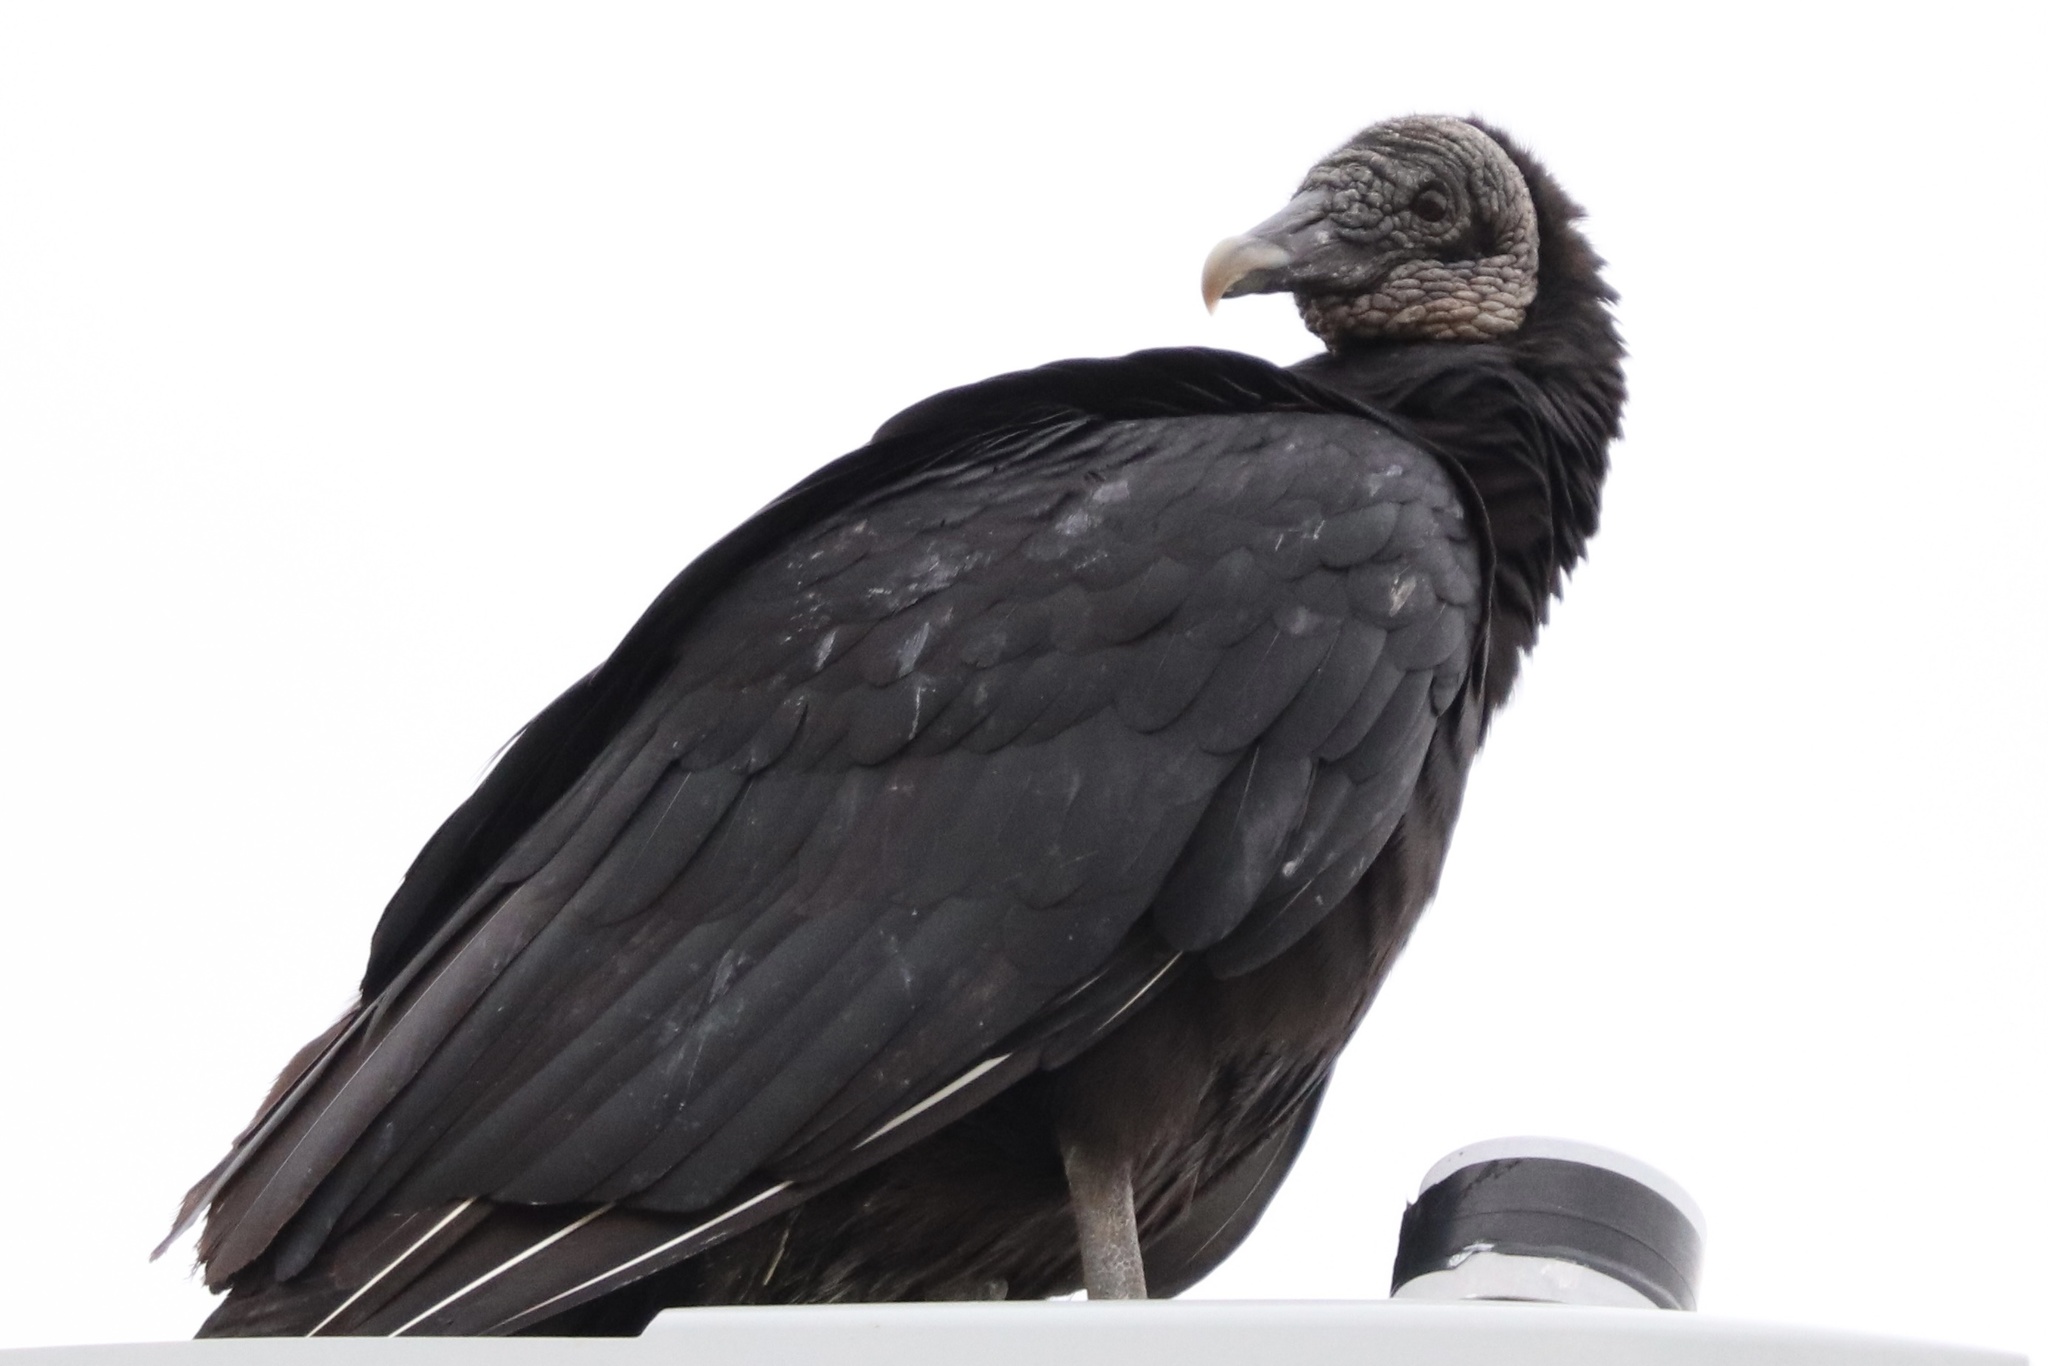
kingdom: Animalia
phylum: Chordata
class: Aves
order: Accipitriformes
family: Cathartidae
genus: Coragyps
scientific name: Coragyps atratus
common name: Black vulture
